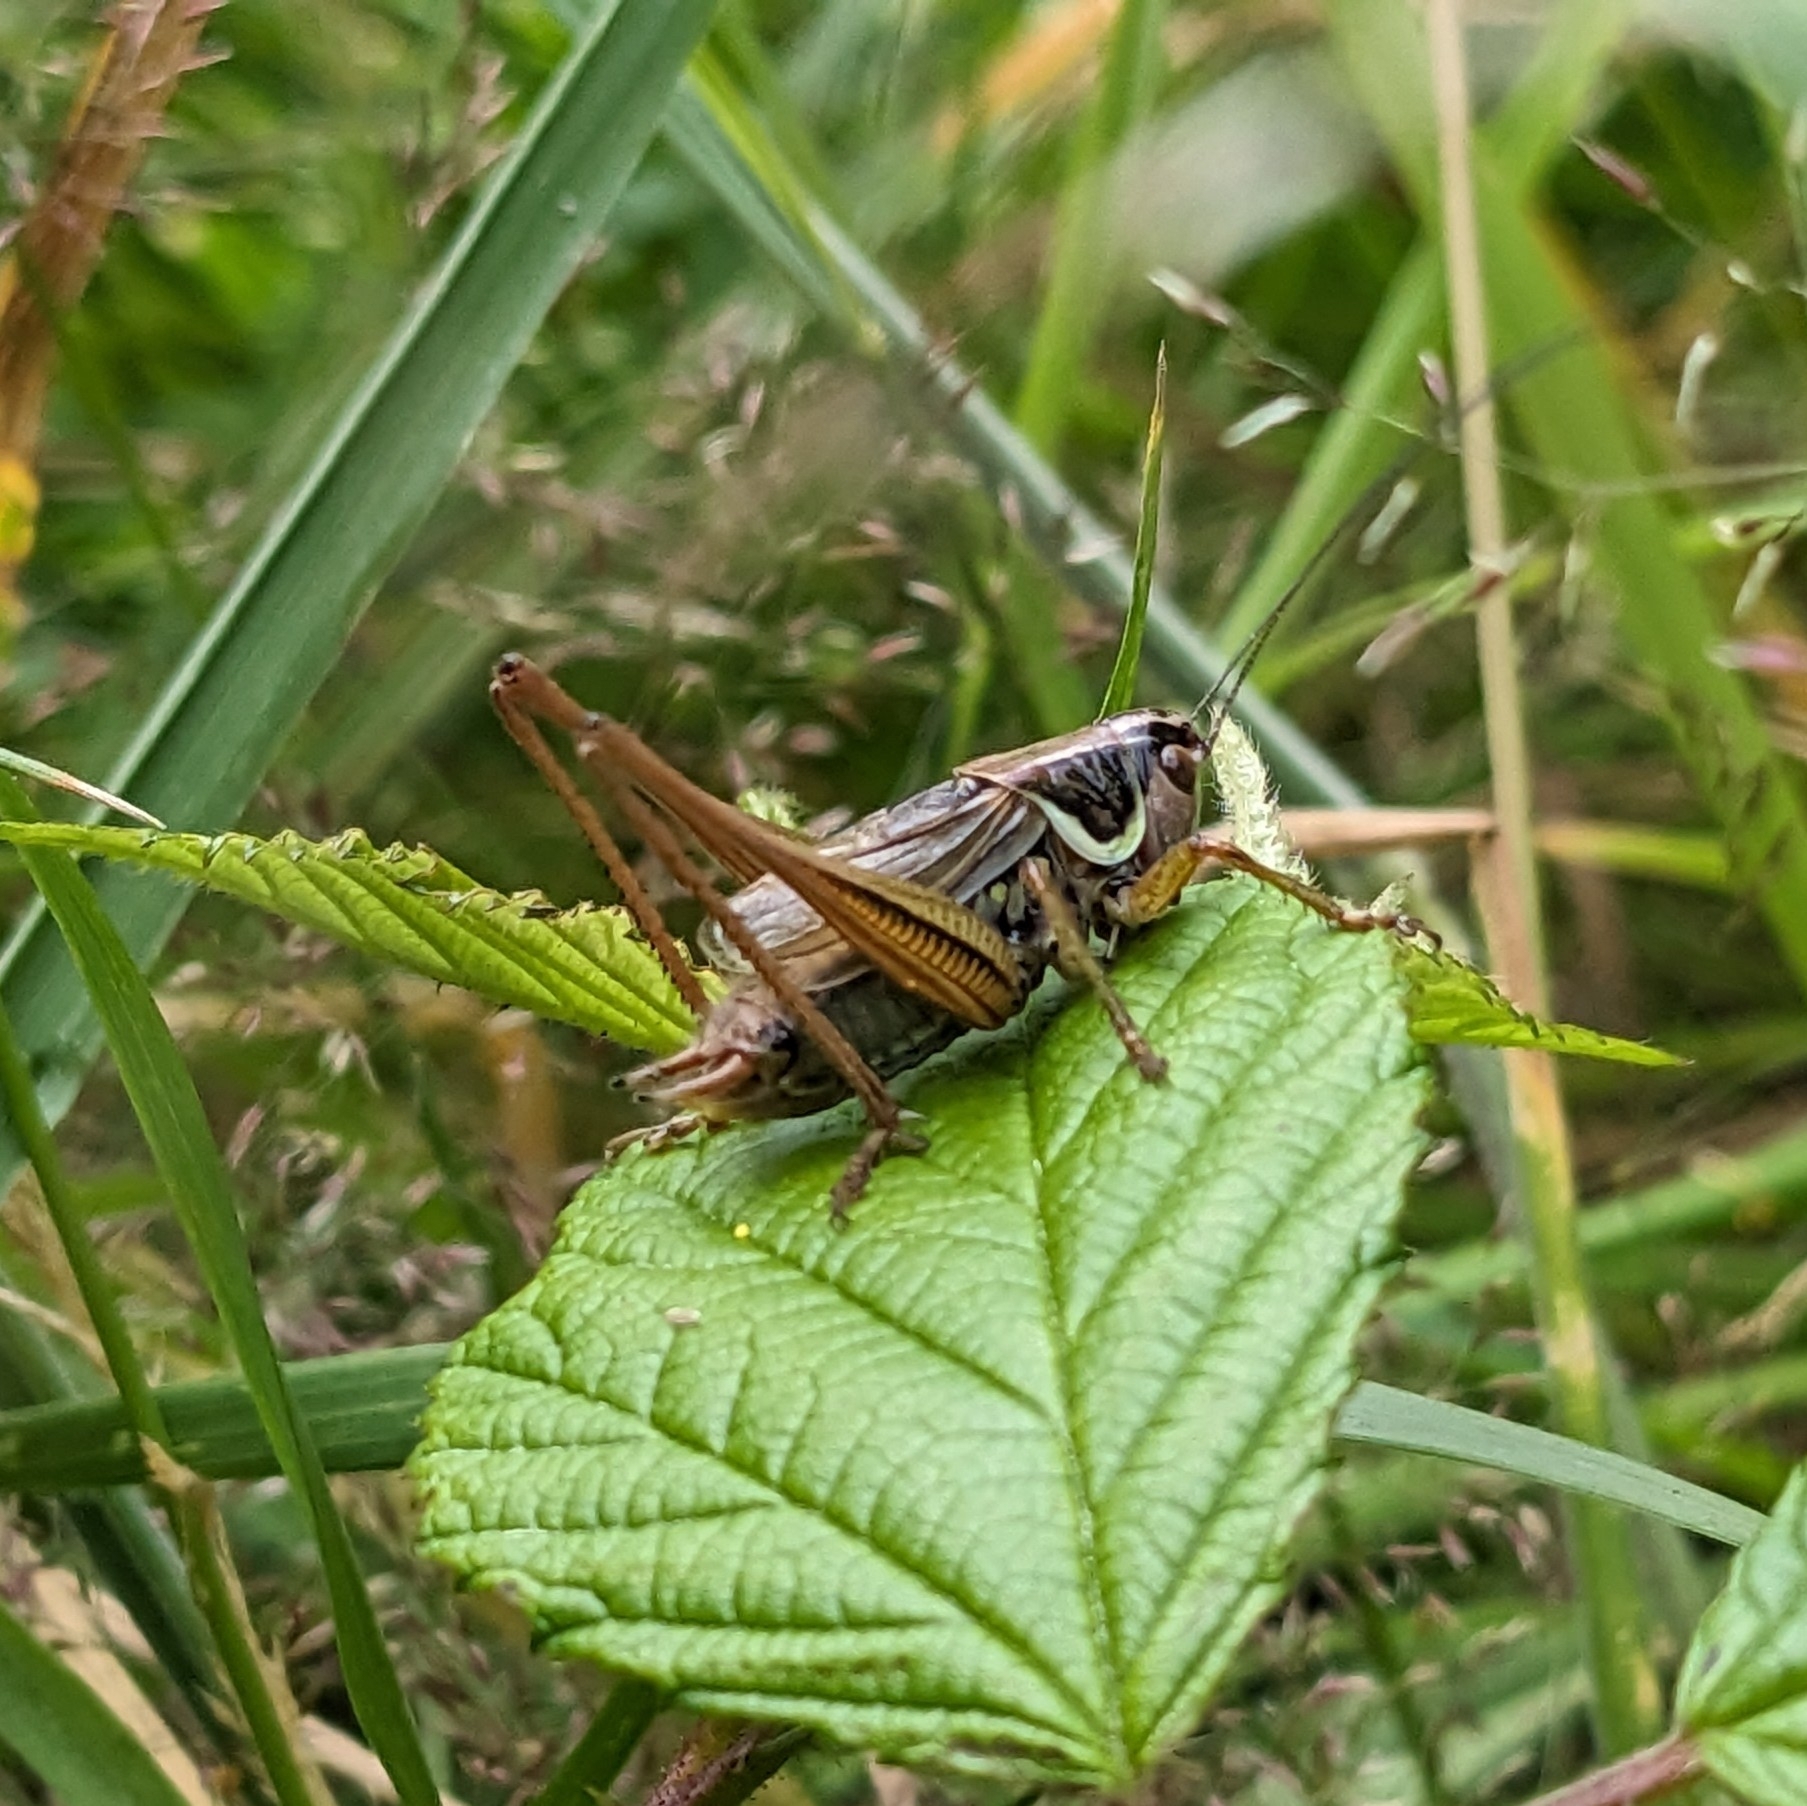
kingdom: Animalia
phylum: Arthropoda
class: Insecta
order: Orthoptera
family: Tettigoniidae
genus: Roeseliana
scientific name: Roeseliana roeselii
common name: Roesel's bush cricket
